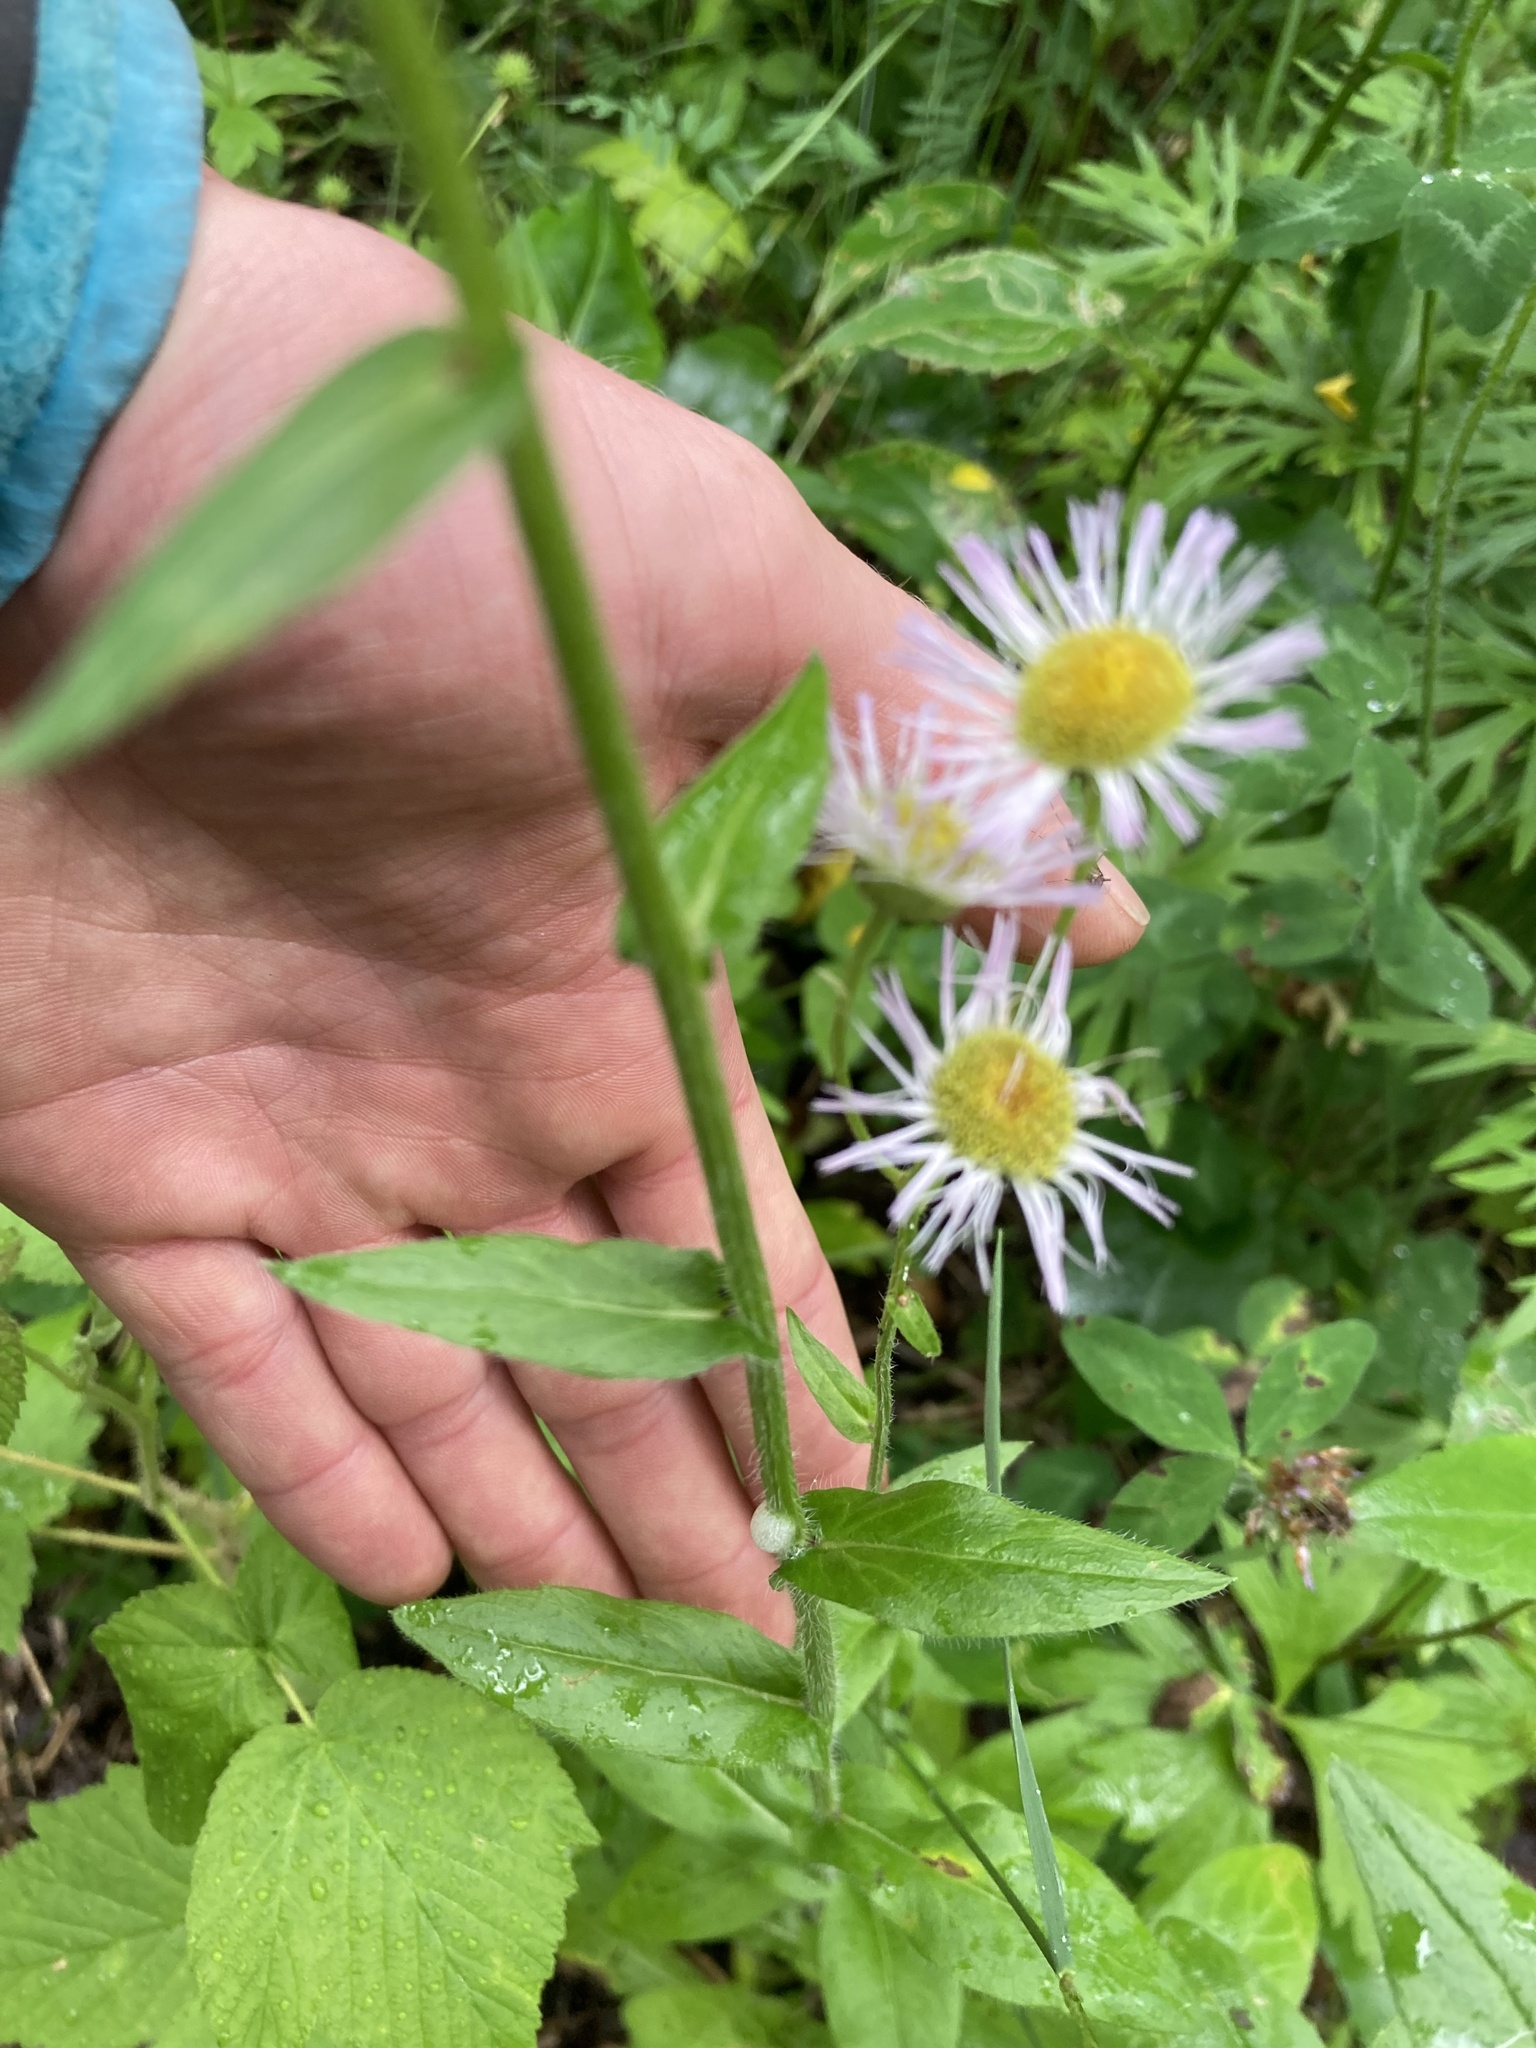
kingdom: Plantae
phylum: Tracheophyta
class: Magnoliopsida
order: Asterales
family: Asteraceae
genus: Erigeron
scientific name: Erigeron philadelphicus
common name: Robin's-plantain
